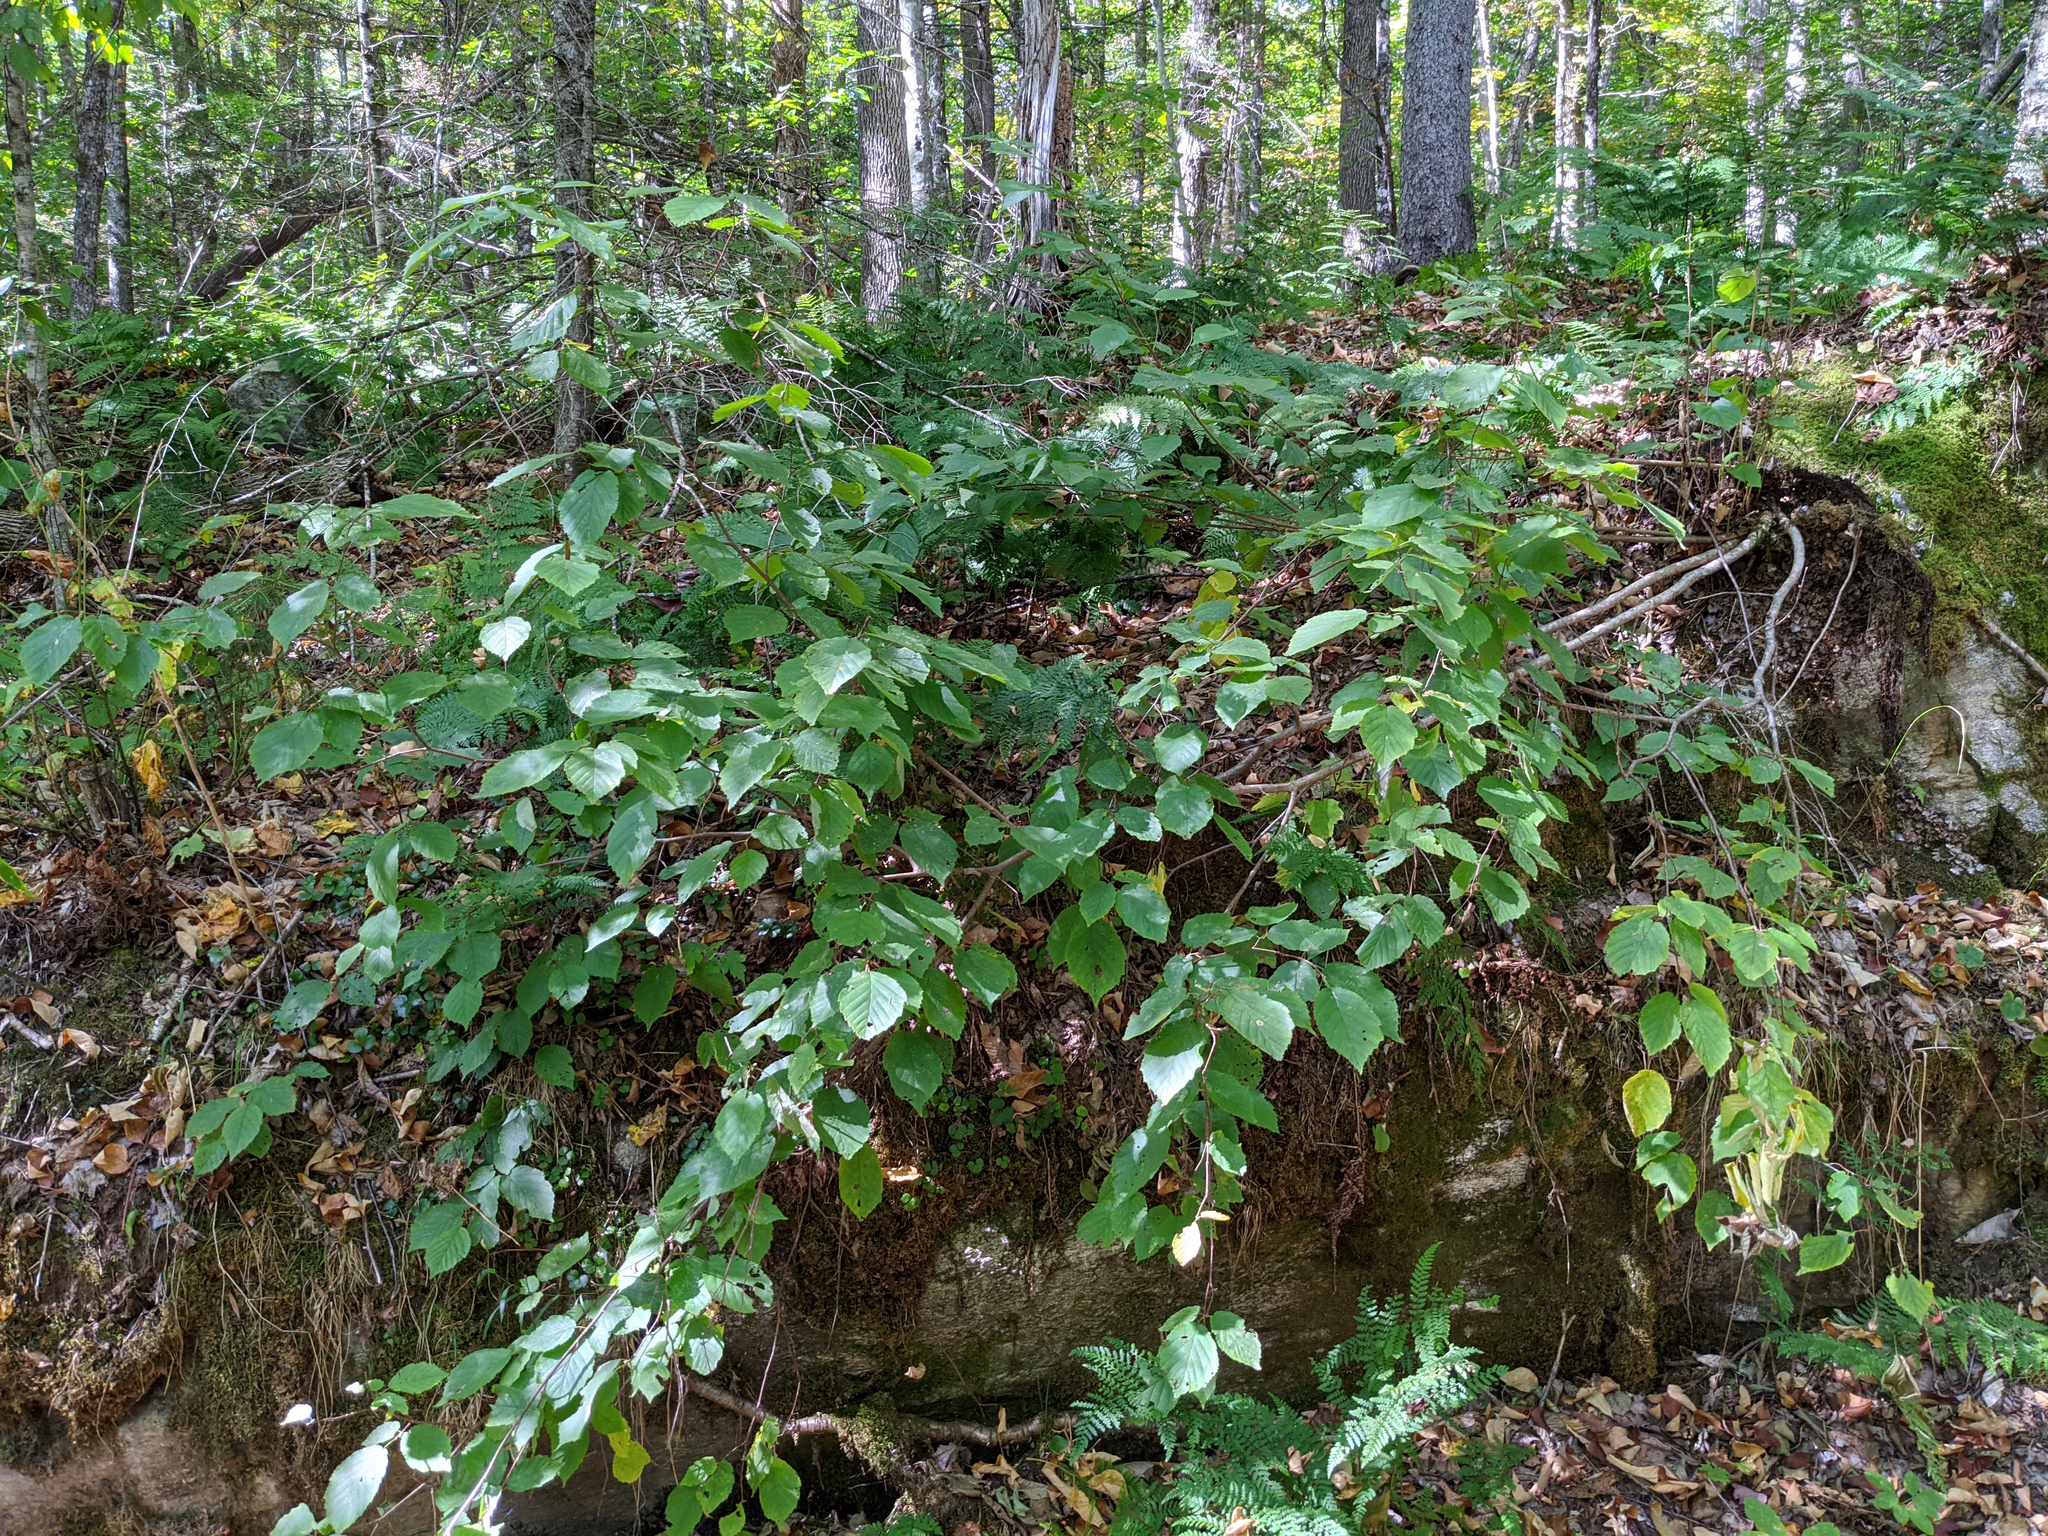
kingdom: Plantae
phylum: Tracheophyta
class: Magnoliopsida
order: Fagales
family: Betulaceae
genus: Corylus
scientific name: Corylus cornuta
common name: Beaked hazel
